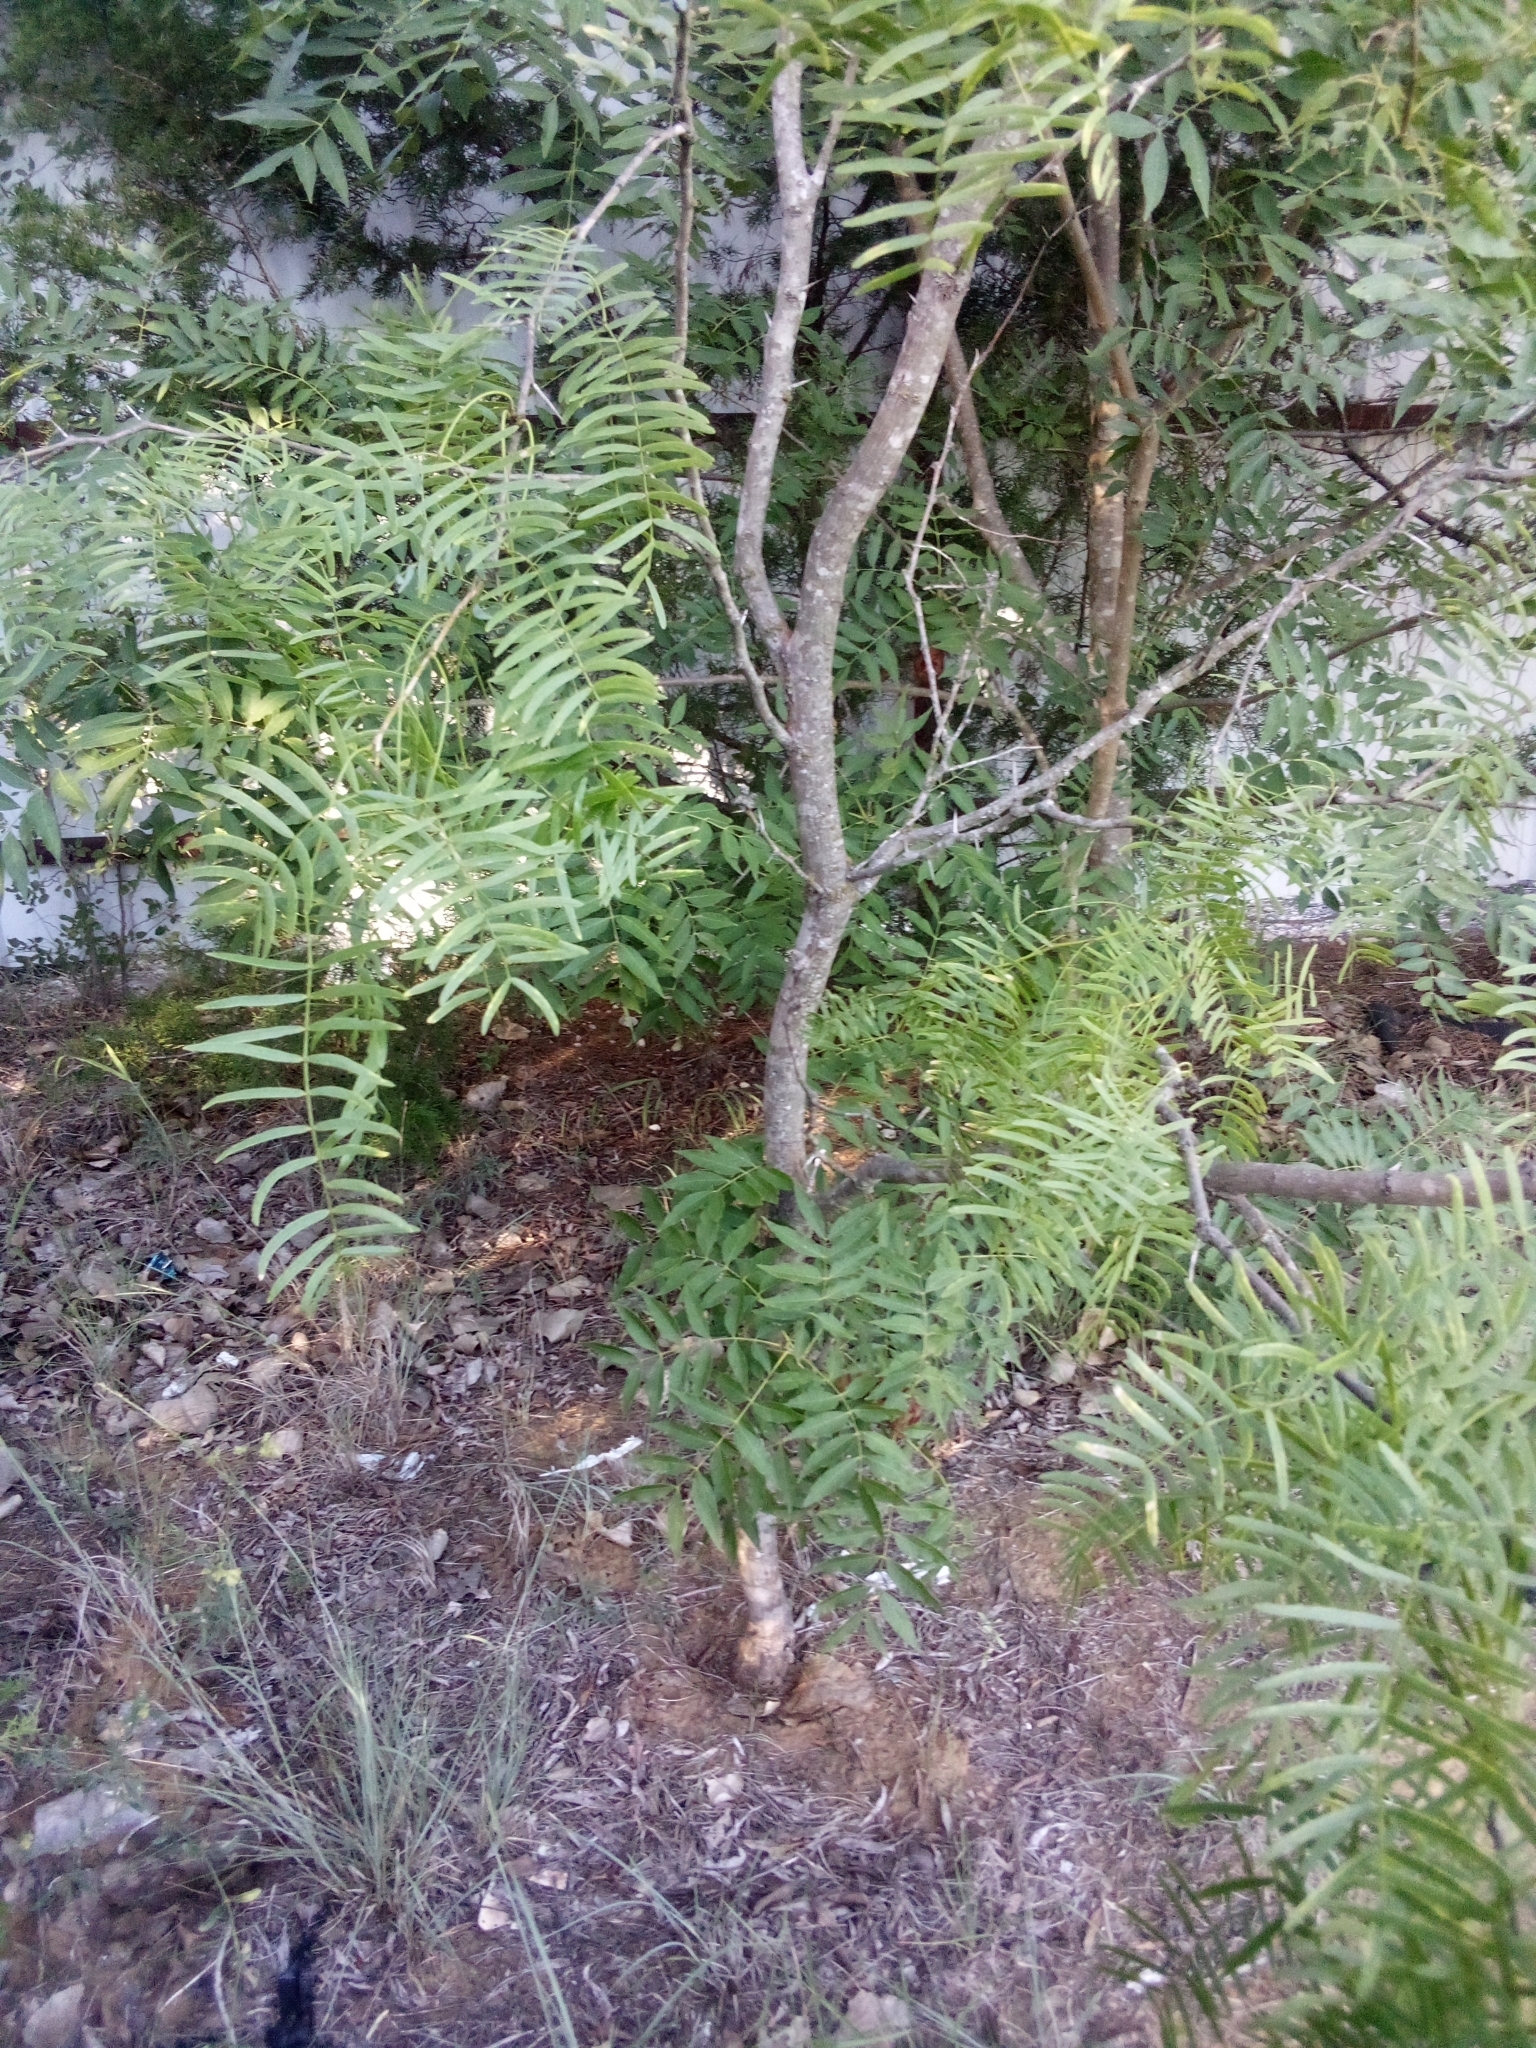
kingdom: Plantae
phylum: Tracheophyta
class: Magnoliopsida
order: Fabales
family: Fabaceae
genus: Prosopis
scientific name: Prosopis glandulosa
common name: Honey mesquite
